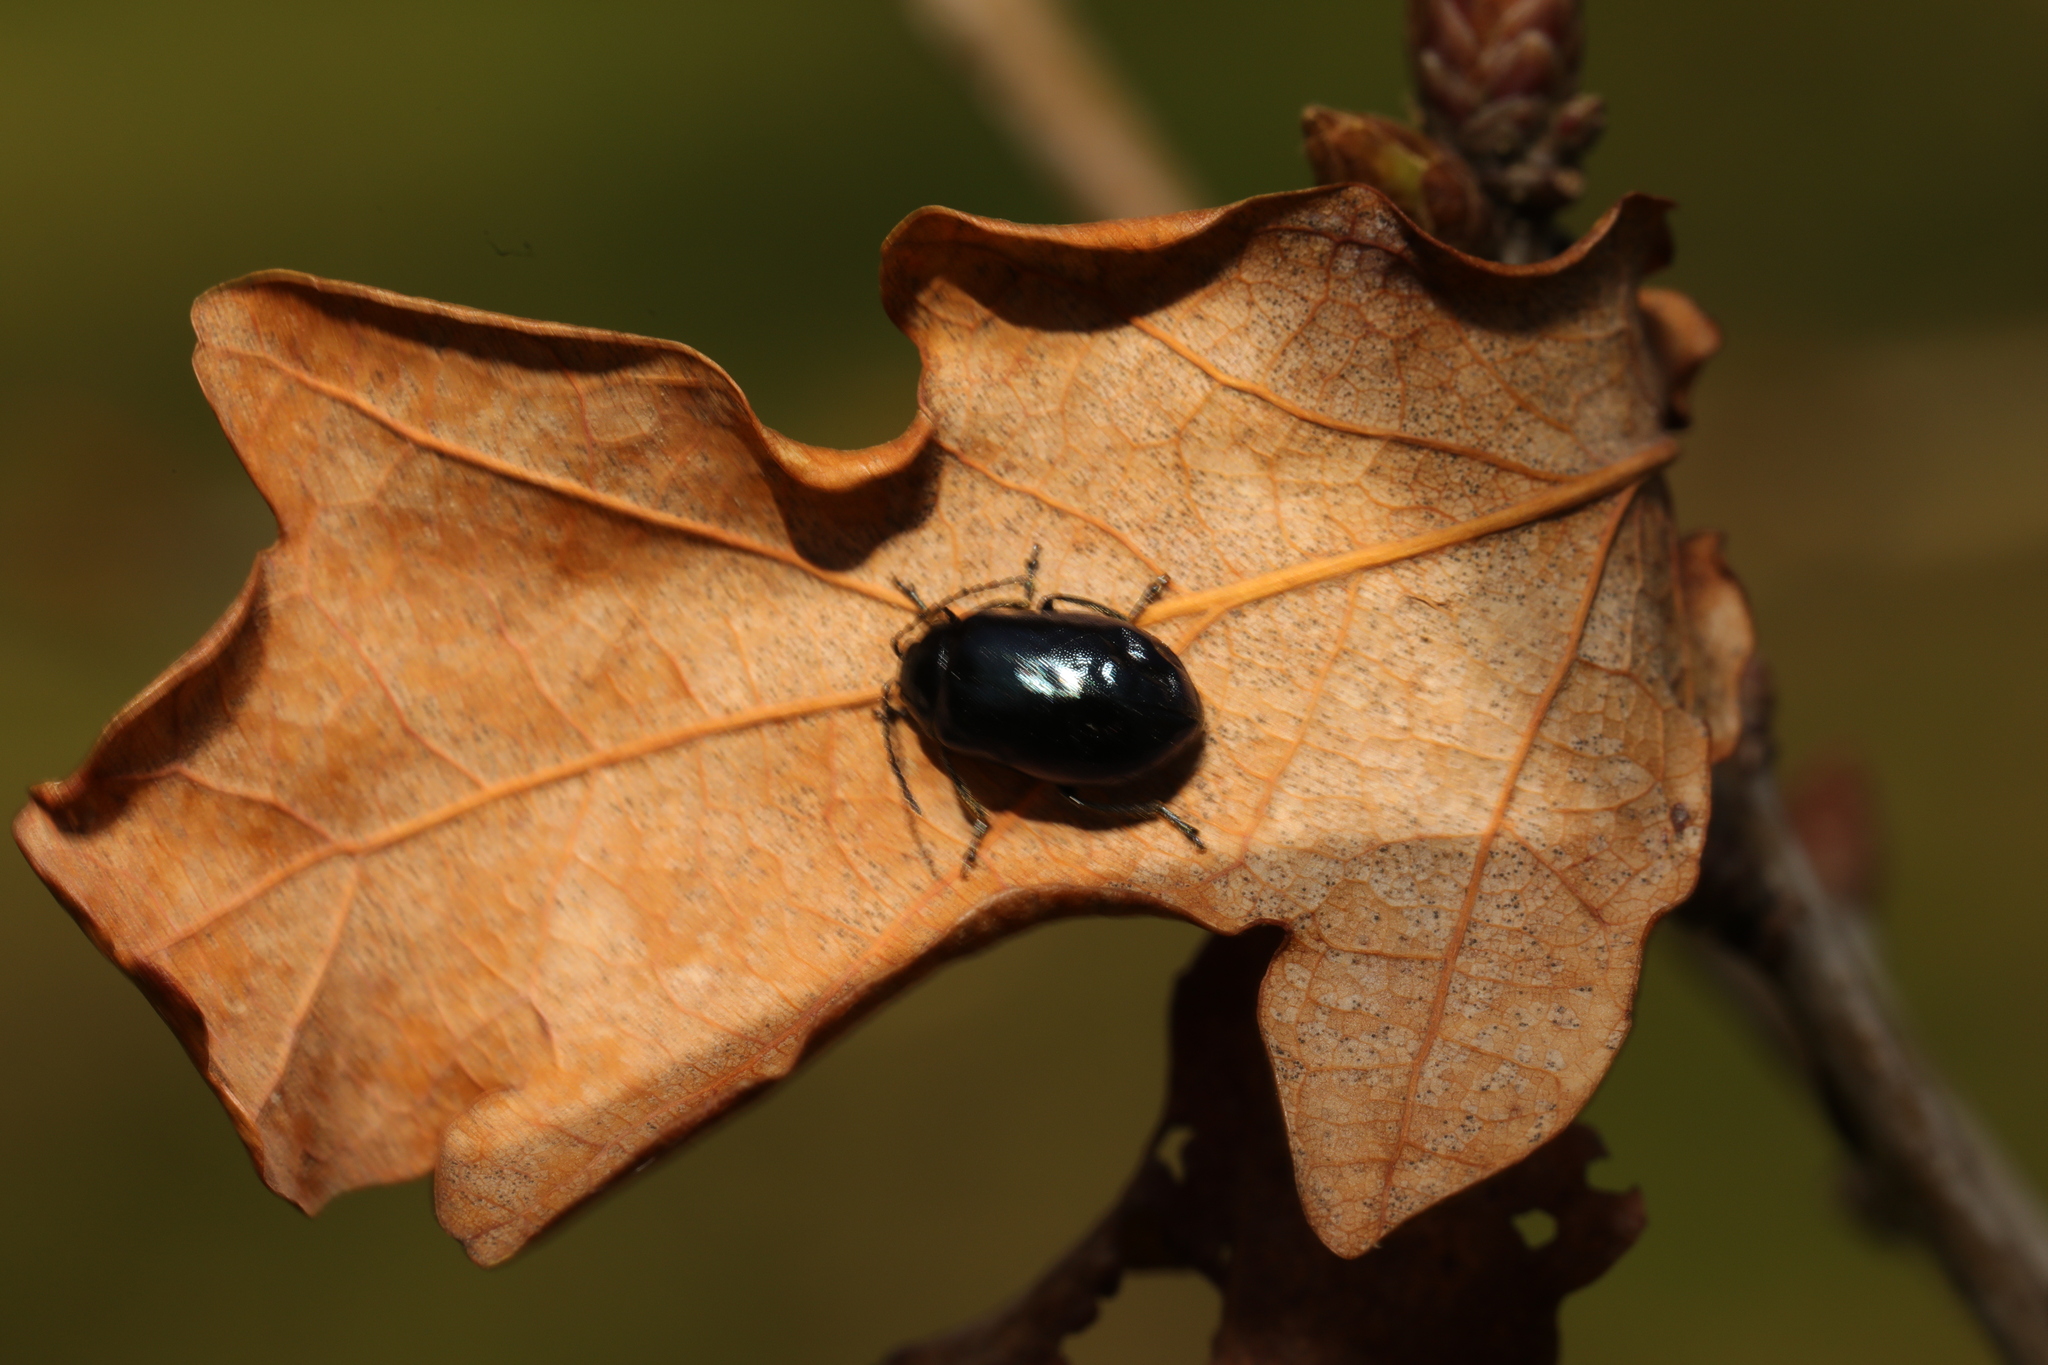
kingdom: Animalia
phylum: Arthropoda
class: Insecta
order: Coleoptera
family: Chrysomelidae
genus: Agelastica
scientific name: Agelastica alni
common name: Alder leaf beetle
